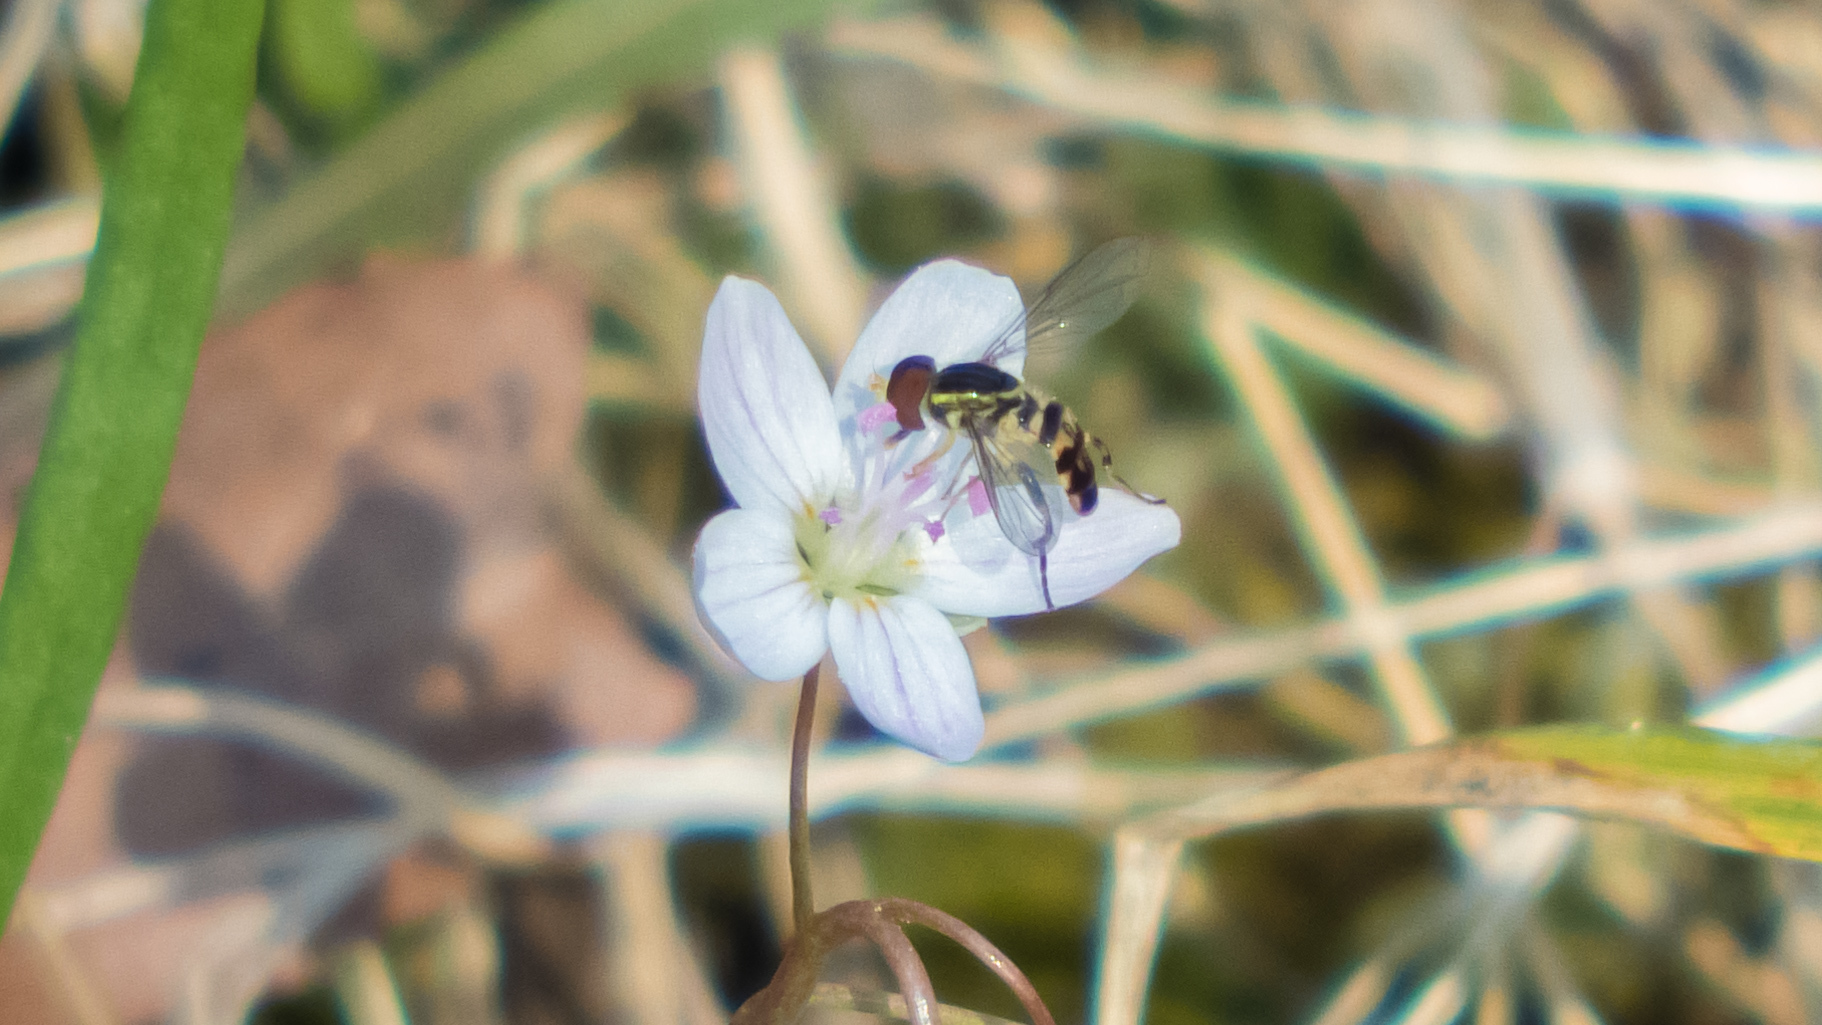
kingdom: Animalia
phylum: Arthropoda
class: Insecta
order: Diptera
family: Syrphidae
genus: Toxomerus
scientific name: Toxomerus geminatus
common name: Eastern calligrapher
